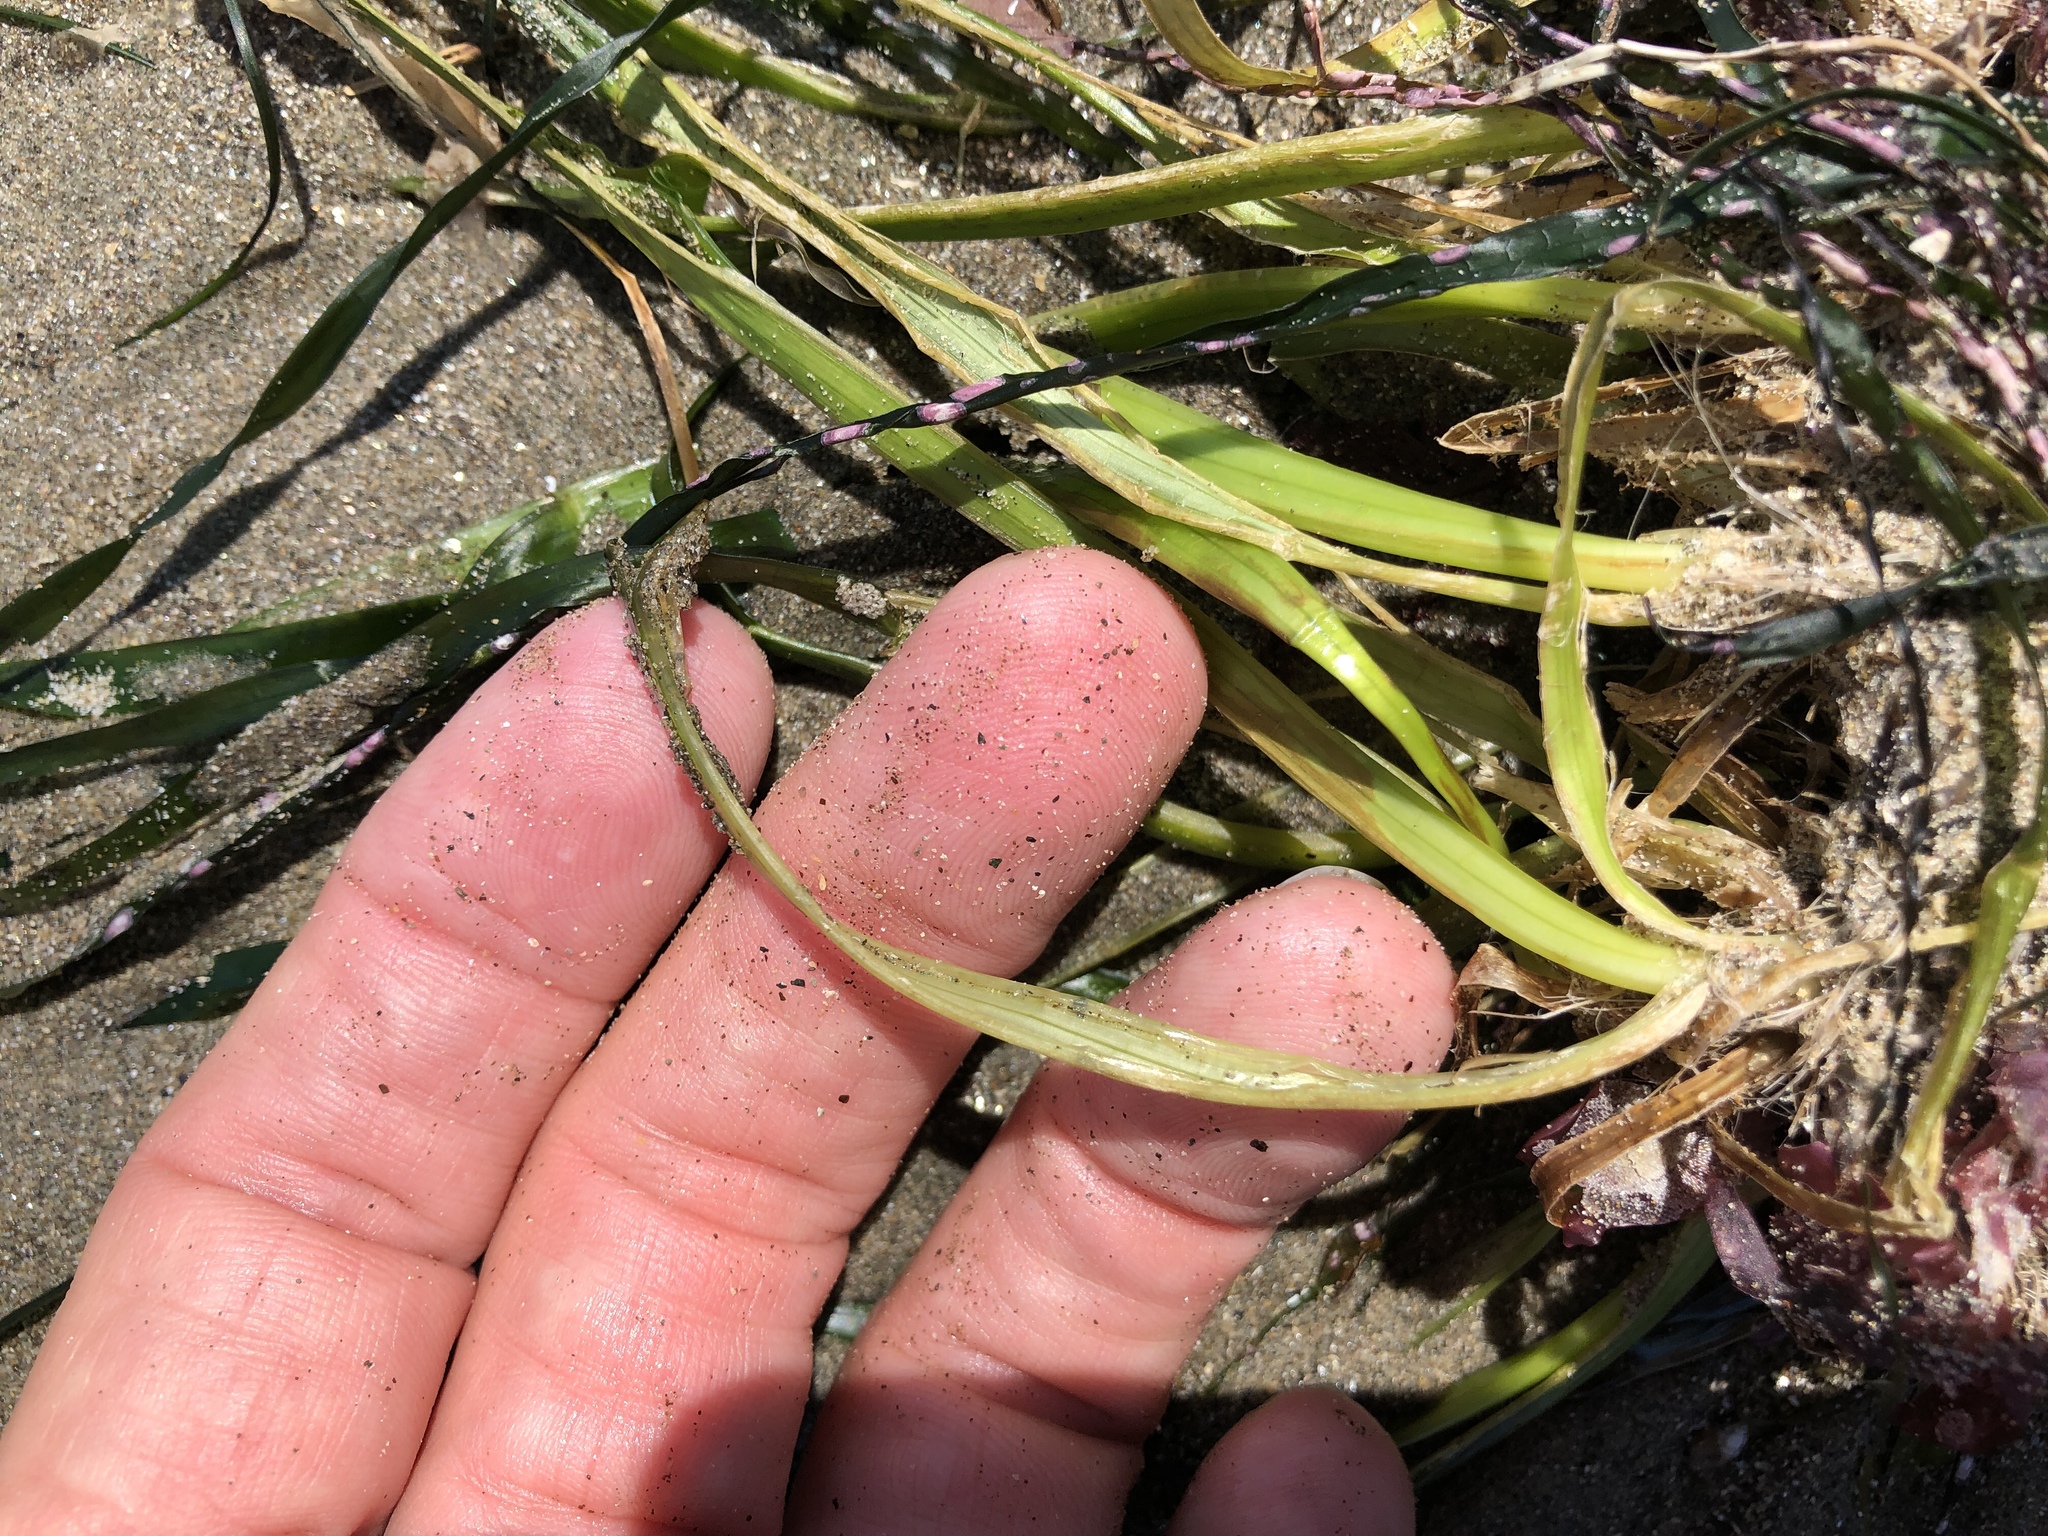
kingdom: Plantae
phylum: Tracheophyta
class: Liliopsida
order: Alismatales
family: Zosteraceae
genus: Phyllospadix
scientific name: Phyllospadix scouleri
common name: Species code: ps
